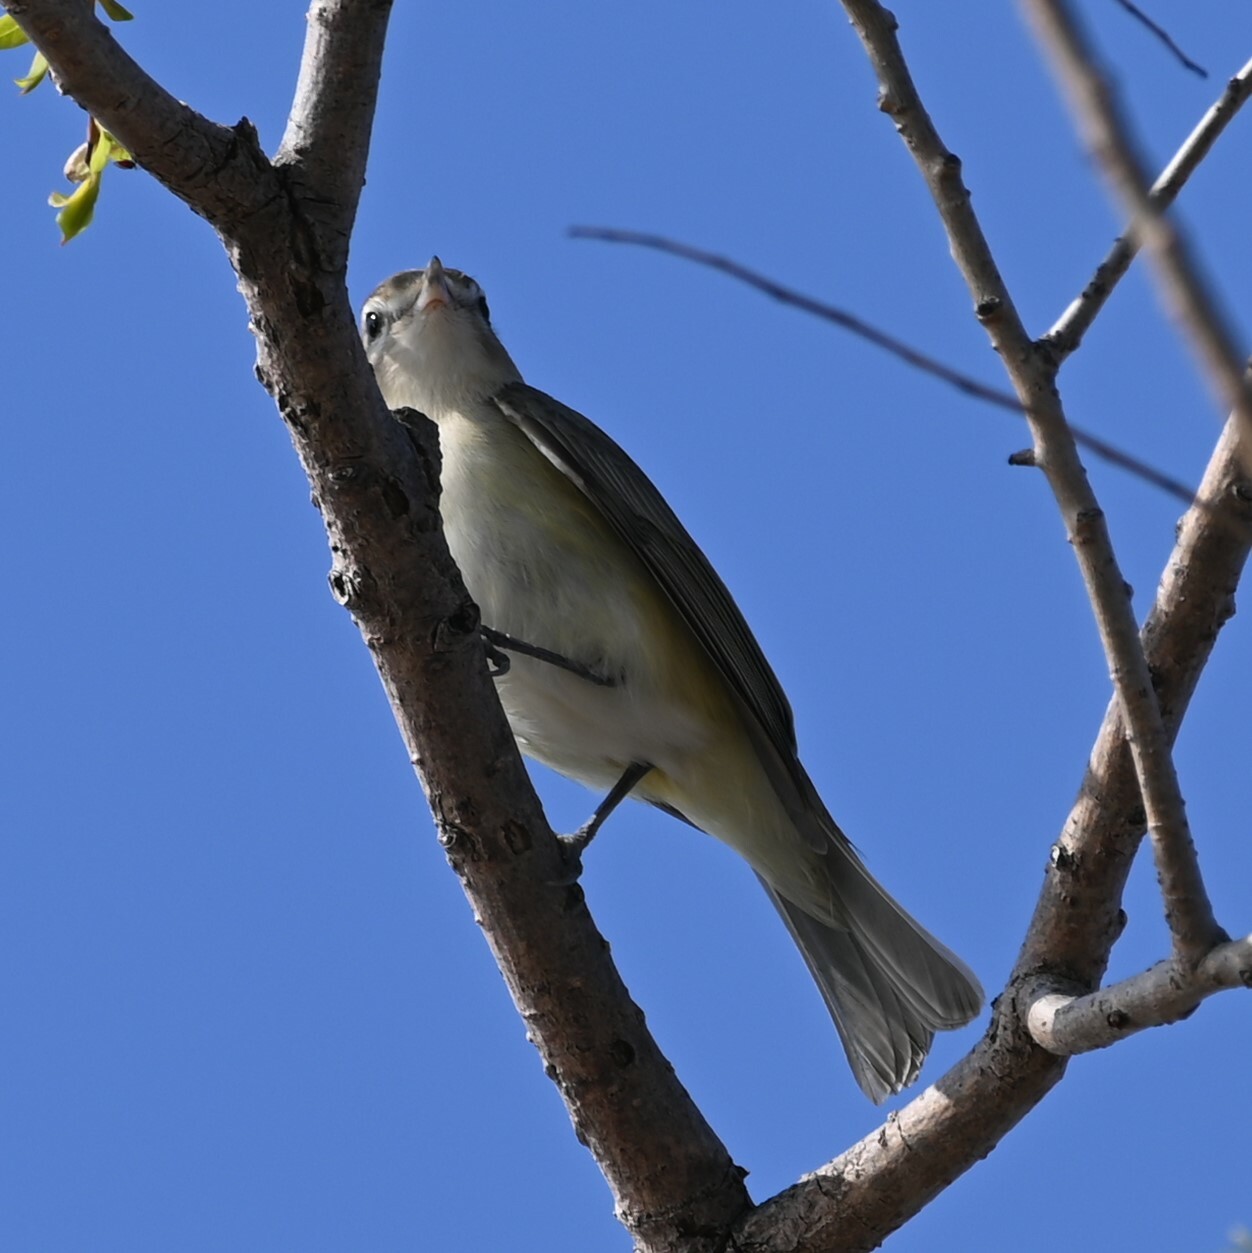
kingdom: Animalia
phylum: Chordata
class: Aves
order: Passeriformes
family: Vireonidae
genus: Vireo
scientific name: Vireo gilvus
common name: Warbling vireo
